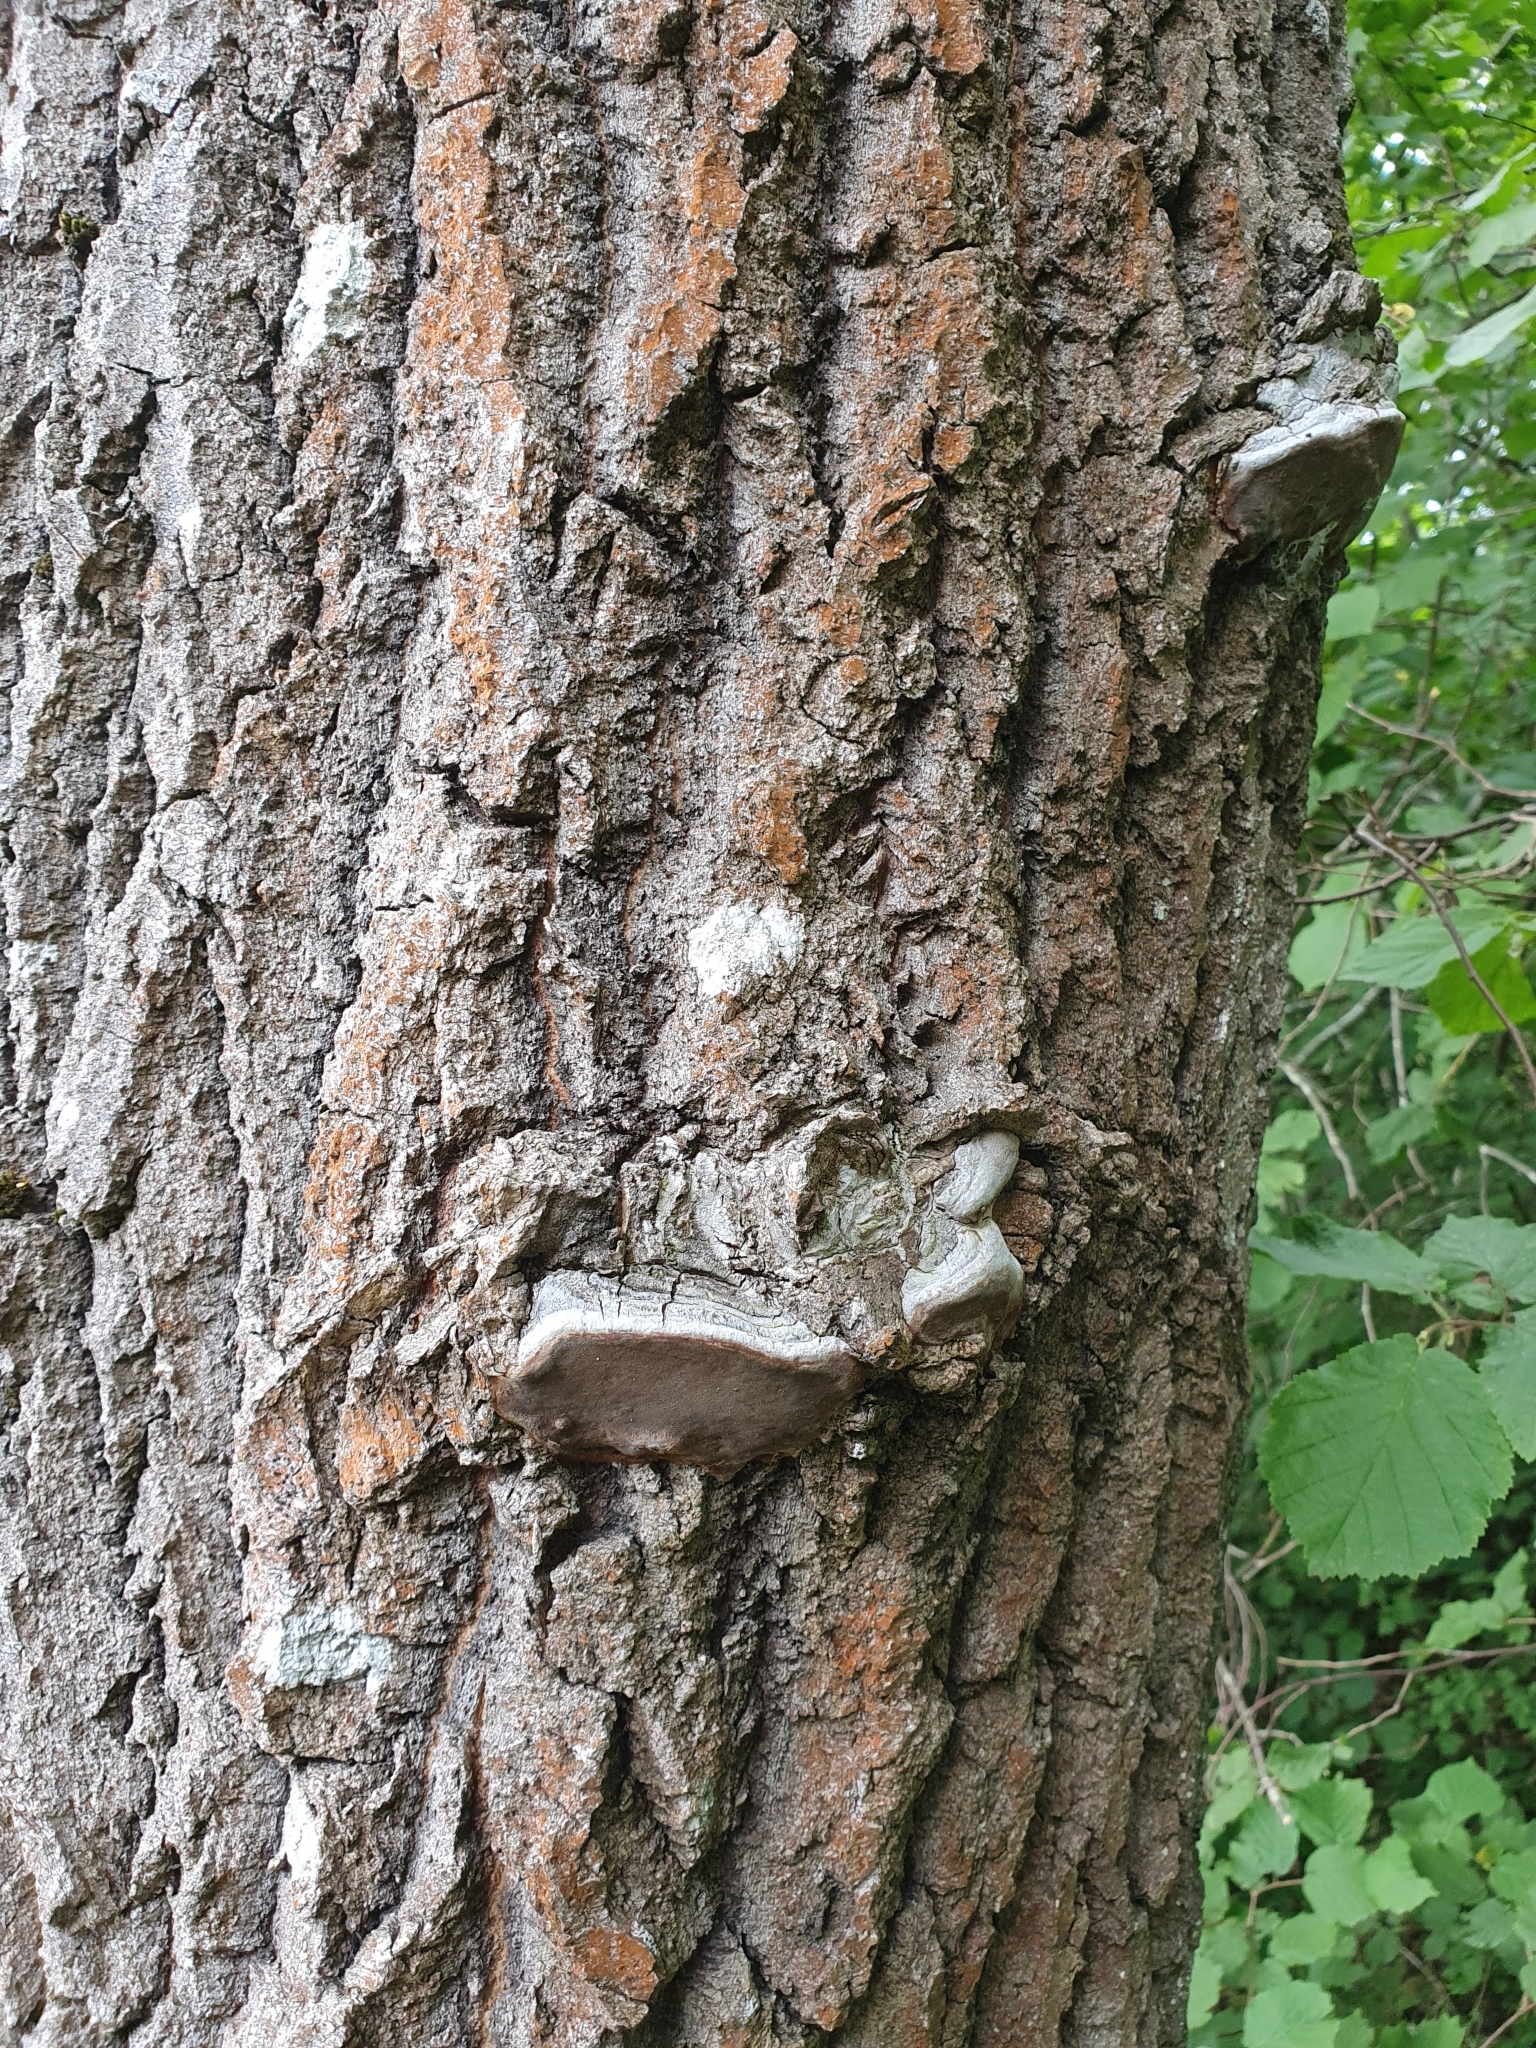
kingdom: Fungi
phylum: Basidiomycota
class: Agaricomycetes
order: Hymenochaetales
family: Hymenochaetaceae
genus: Phellinus
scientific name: Phellinus tremulae
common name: Aspen bracket
